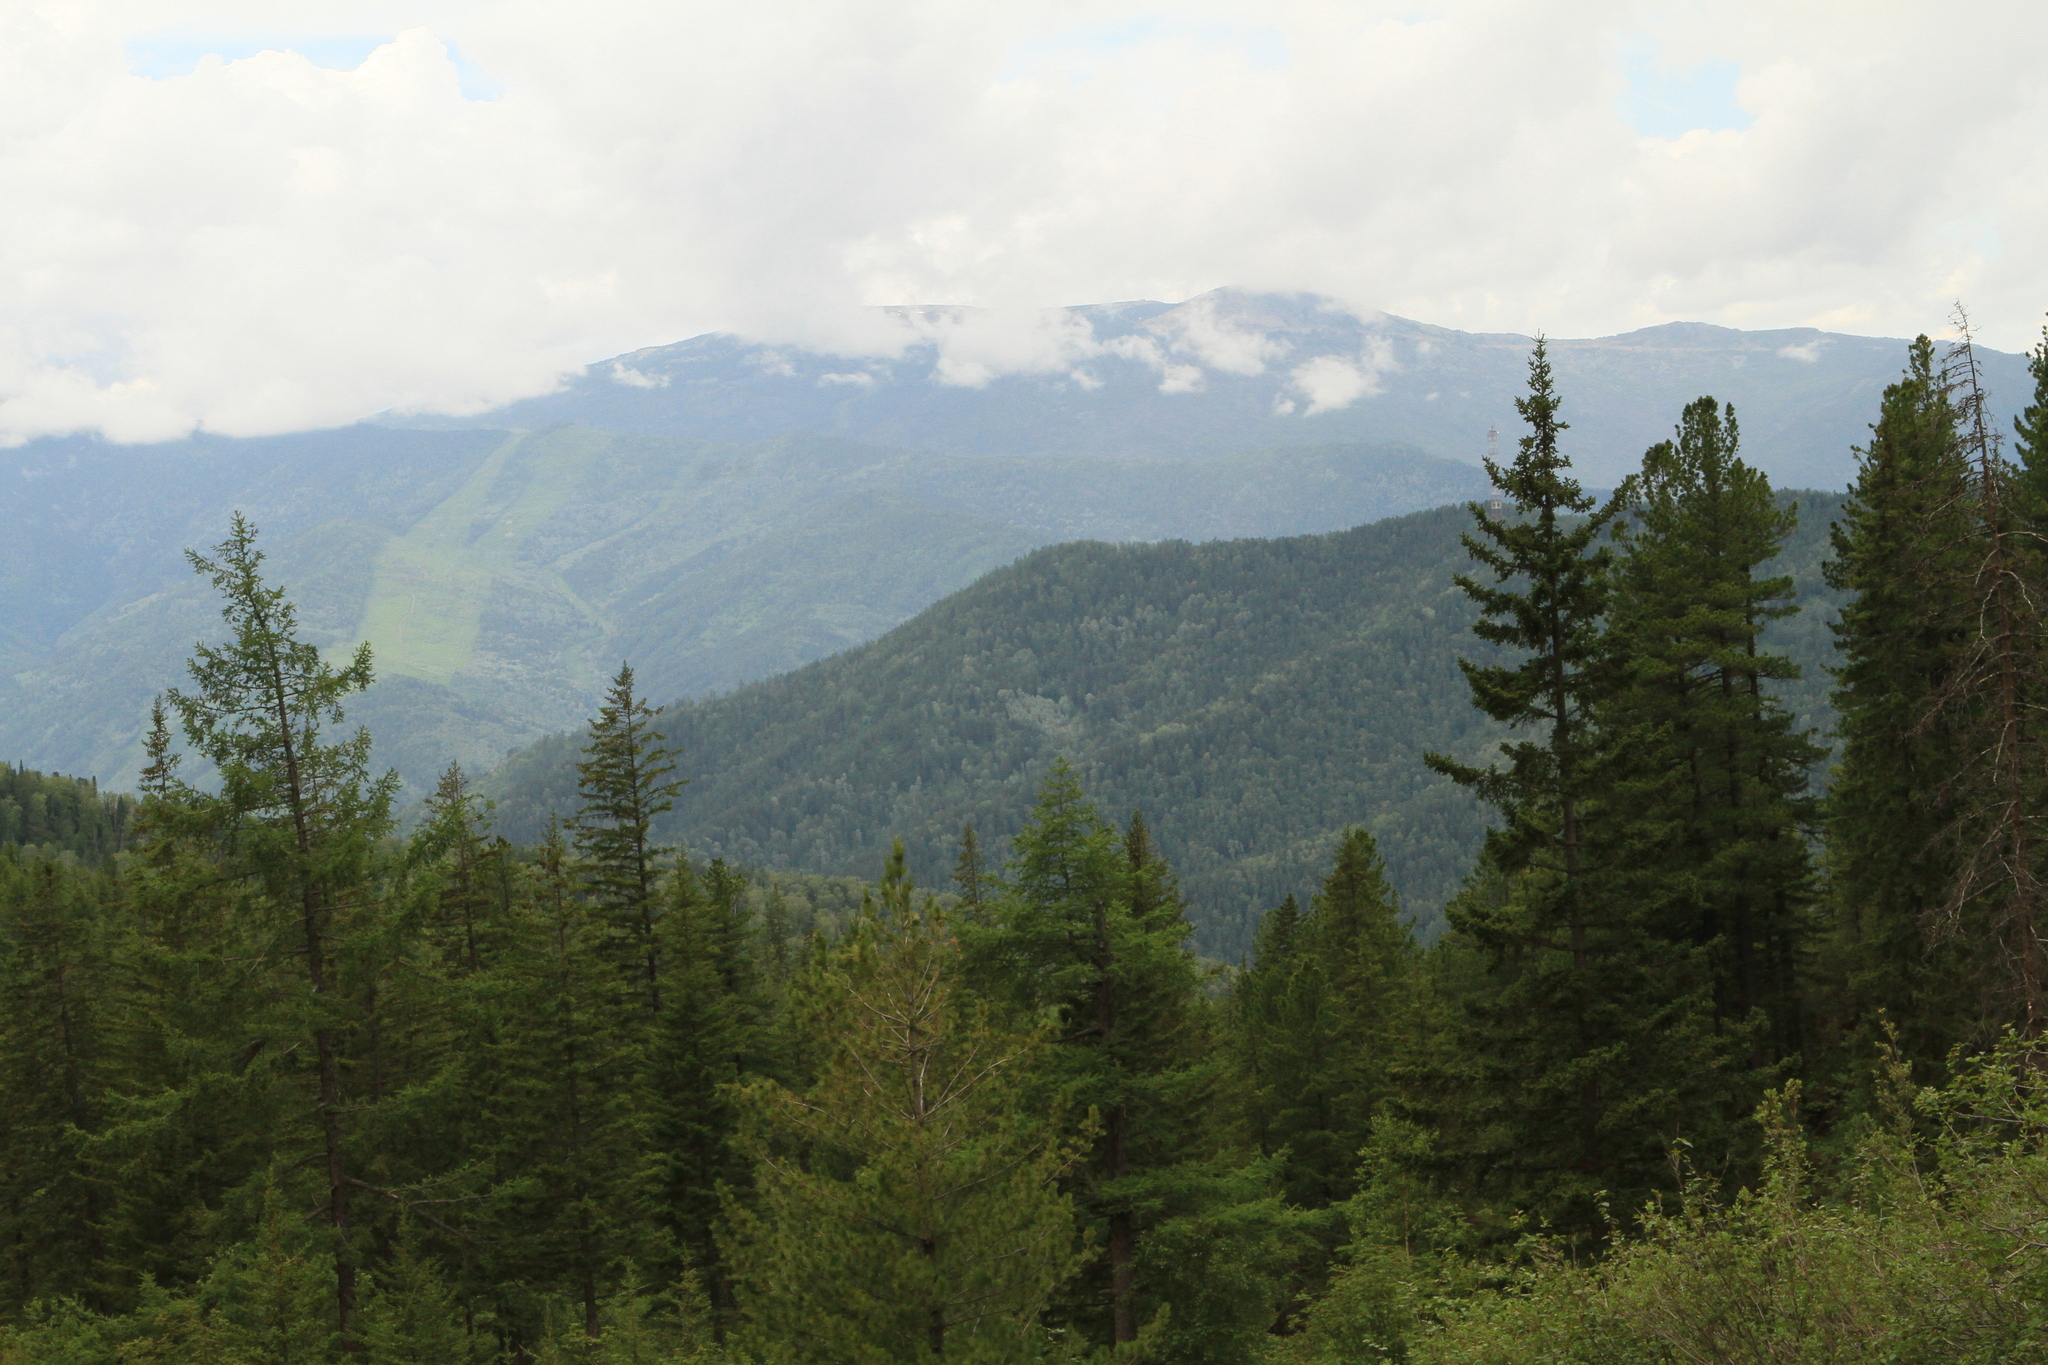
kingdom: Plantae
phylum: Tracheophyta
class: Pinopsida
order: Pinales
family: Pinaceae
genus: Larix
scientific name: Larix sibirica
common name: Siberian larch
